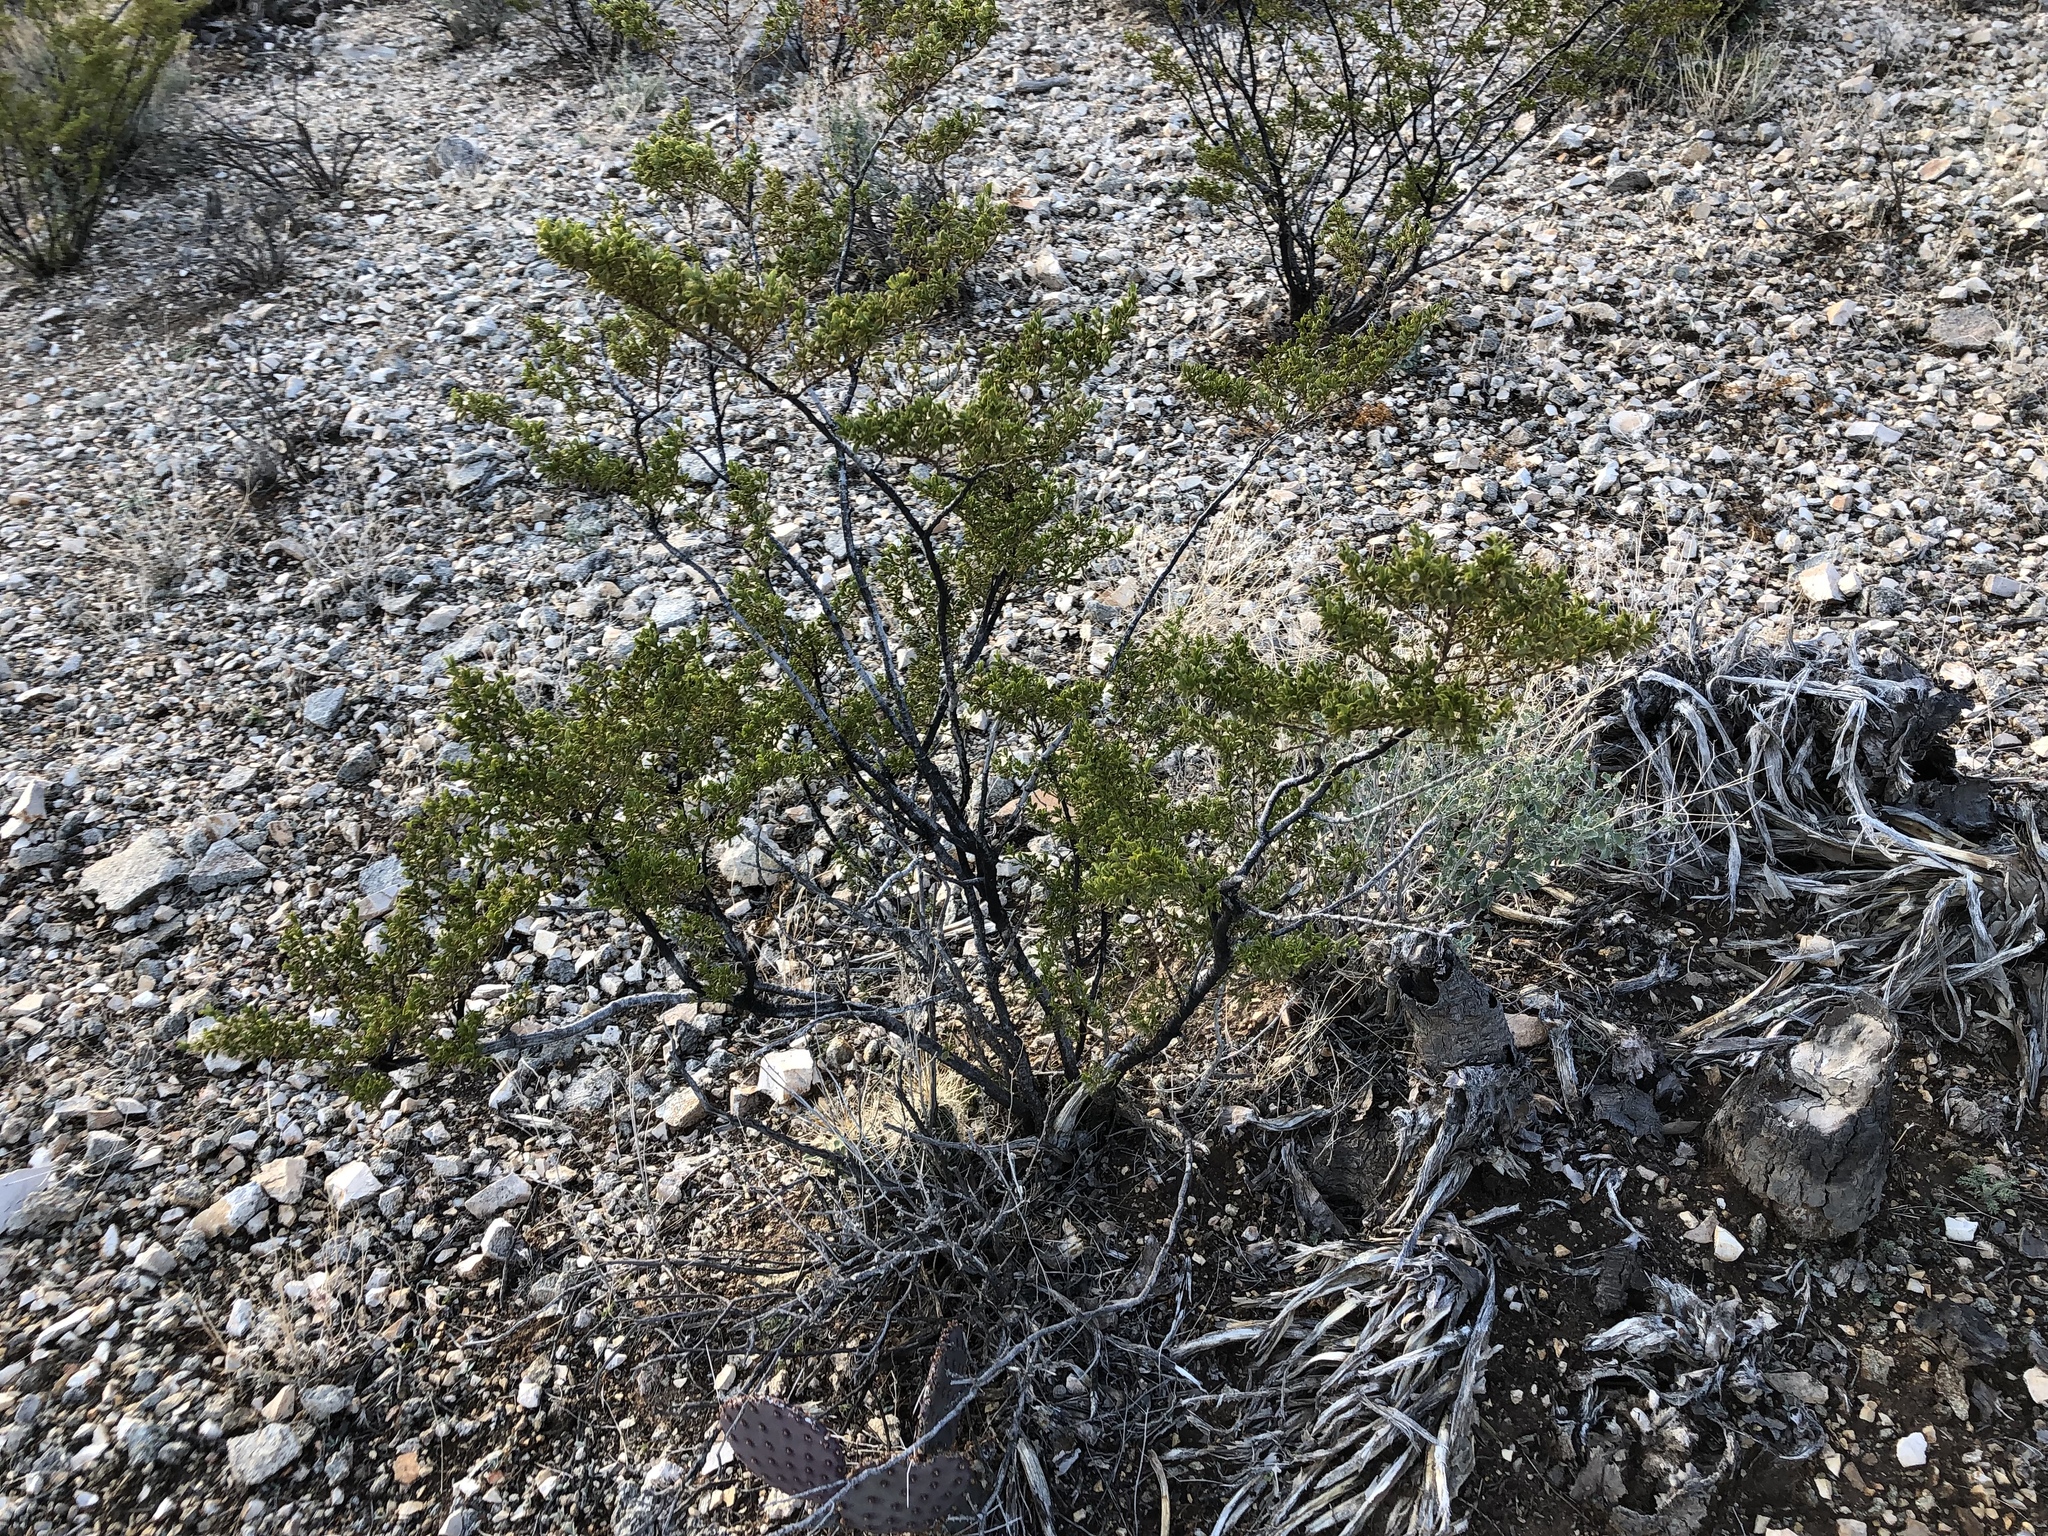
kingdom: Plantae
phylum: Tracheophyta
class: Magnoliopsida
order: Zygophyllales
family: Zygophyllaceae
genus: Larrea
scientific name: Larrea tridentata
